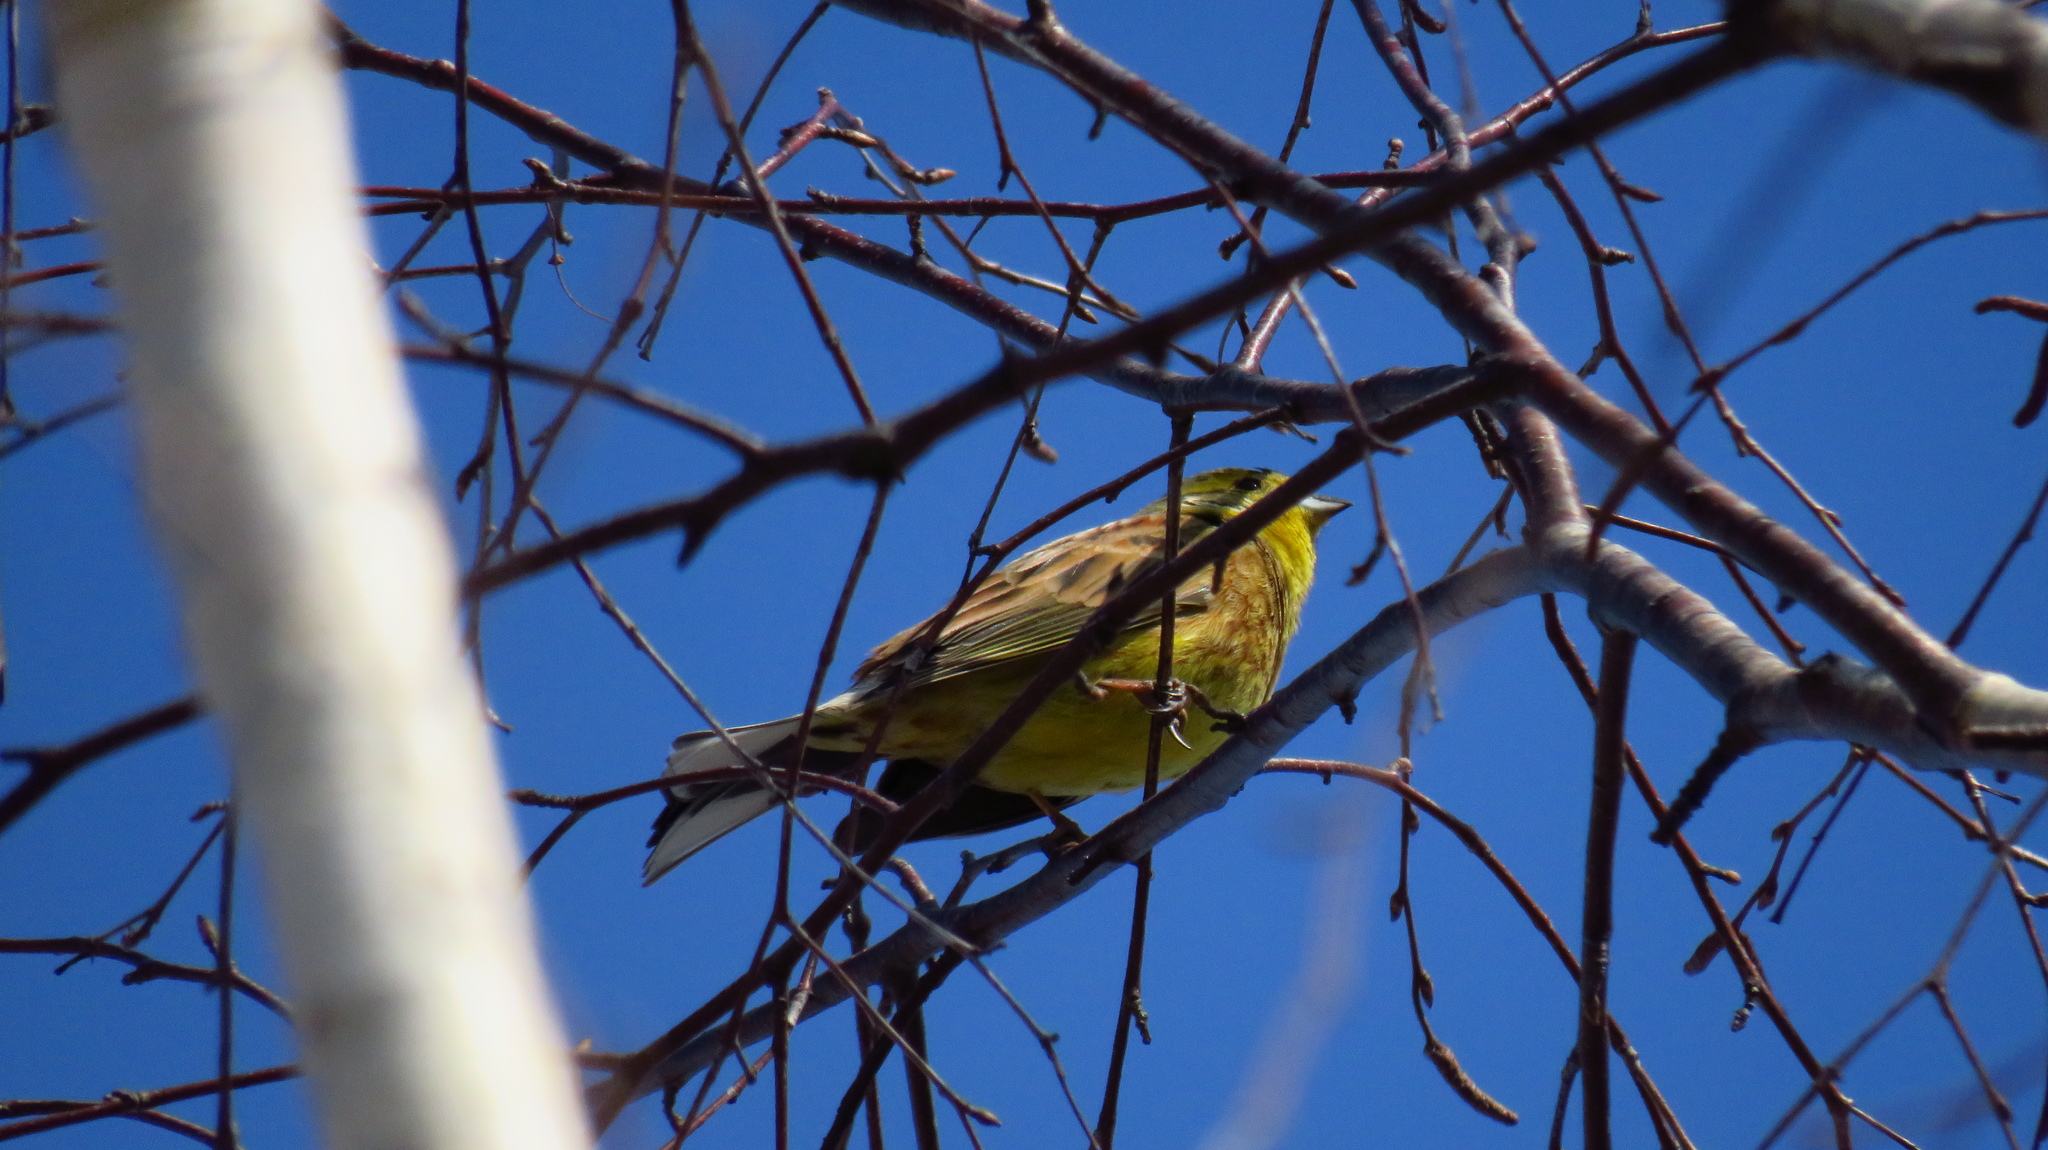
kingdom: Animalia
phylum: Chordata
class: Aves
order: Passeriformes
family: Emberizidae
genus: Emberiza
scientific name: Emberiza citrinella
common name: Yellowhammer
